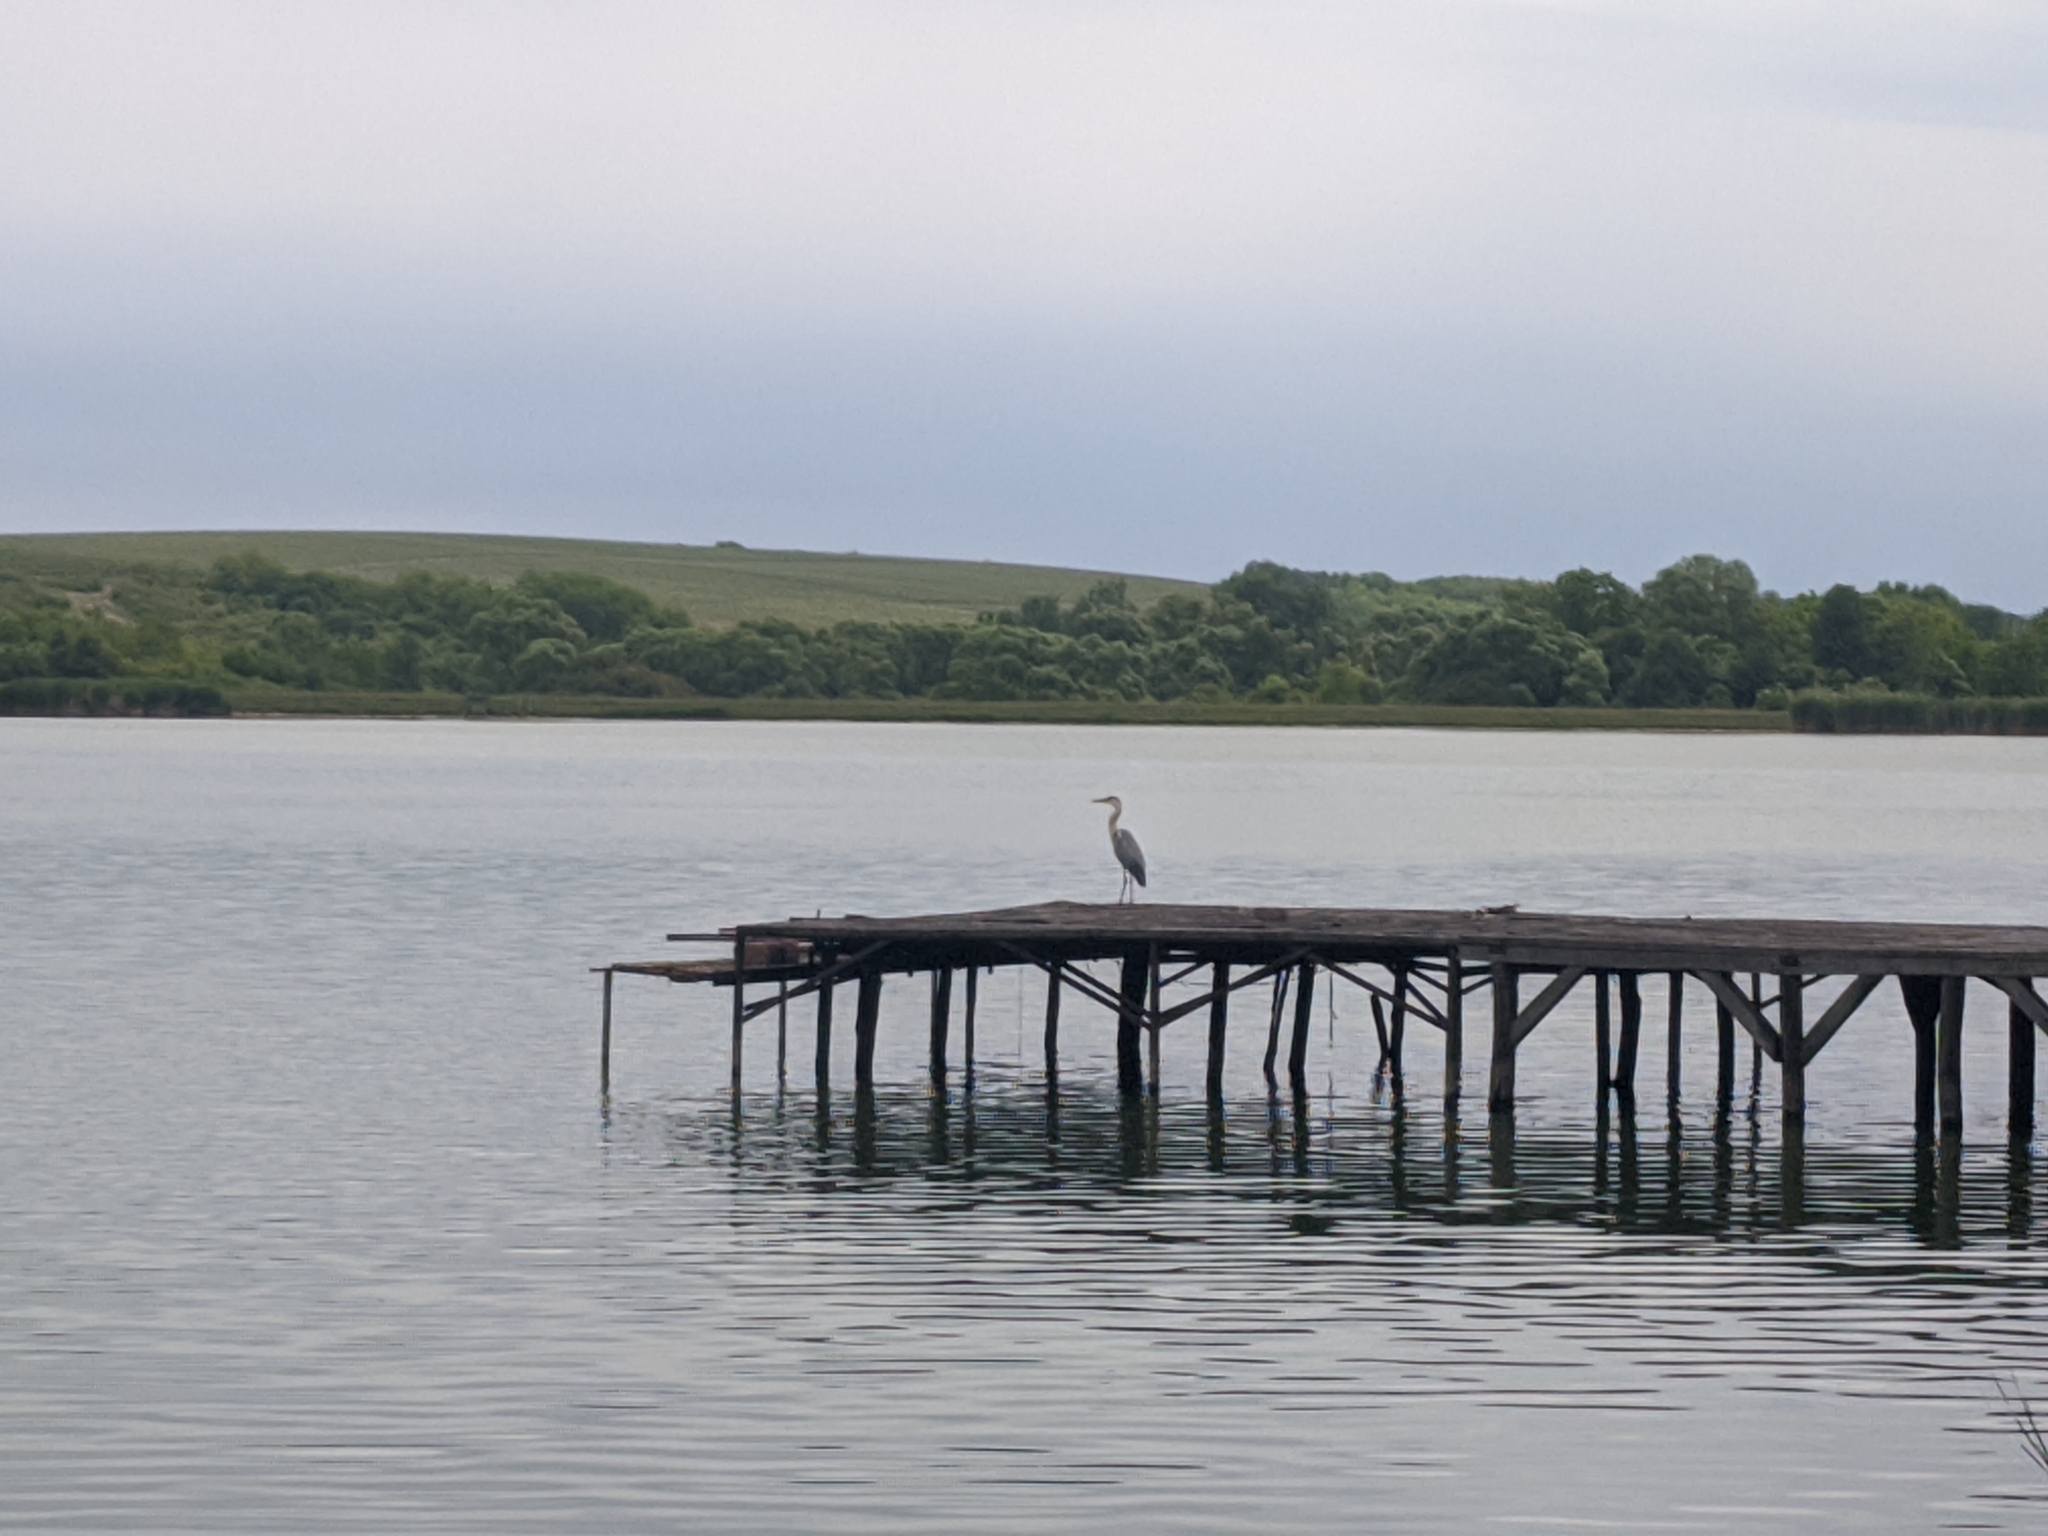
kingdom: Animalia
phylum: Chordata
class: Aves
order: Pelecaniformes
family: Ardeidae
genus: Ardea
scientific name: Ardea cinerea
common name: Grey heron
